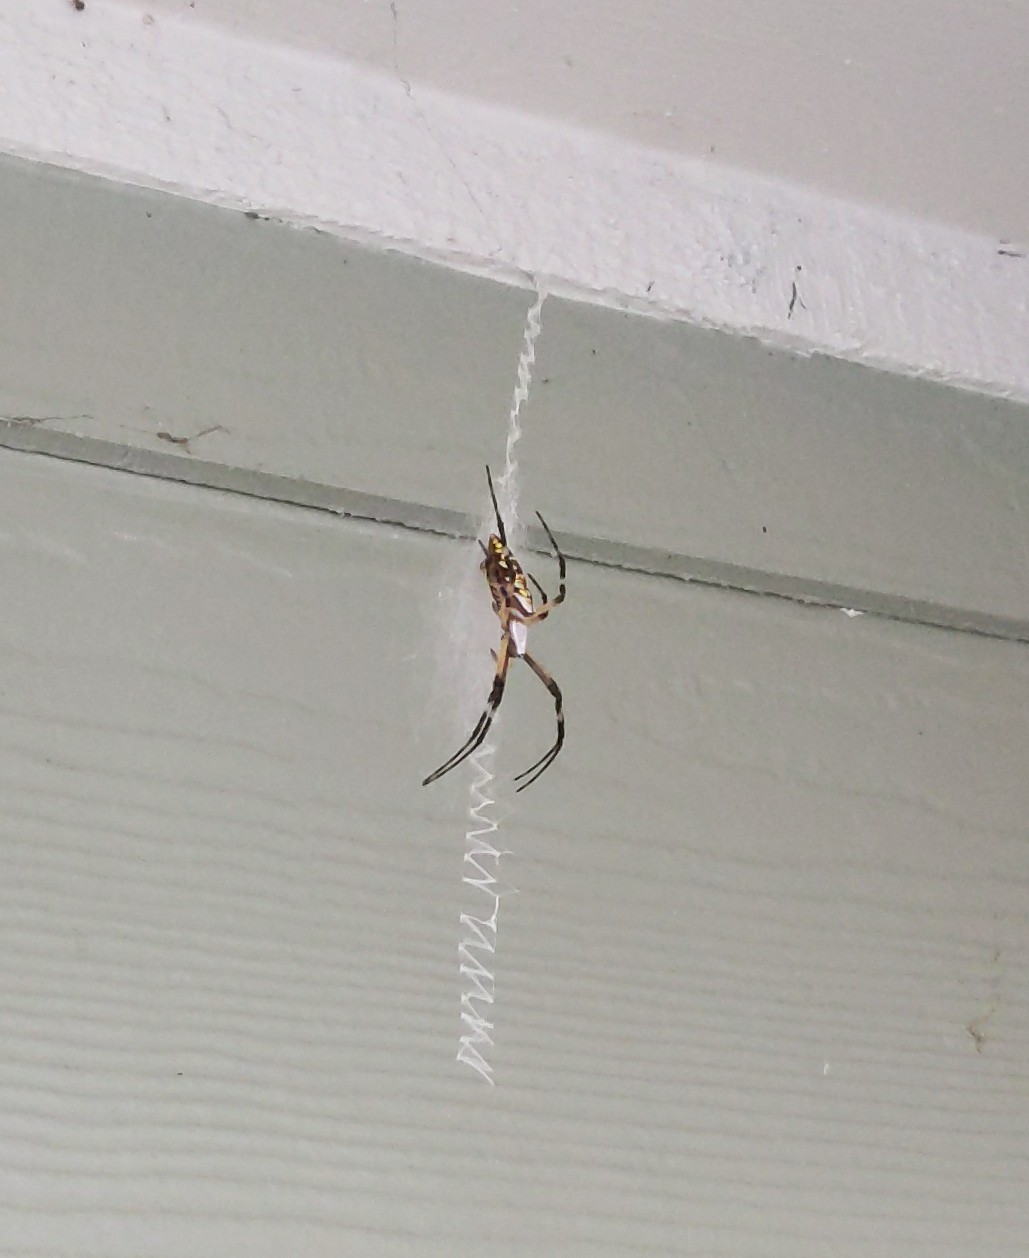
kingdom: Animalia
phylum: Arthropoda
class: Arachnida
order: Araneae
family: Araneidae
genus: Argiope
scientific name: Argiope aurantia
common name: Orb weavers
